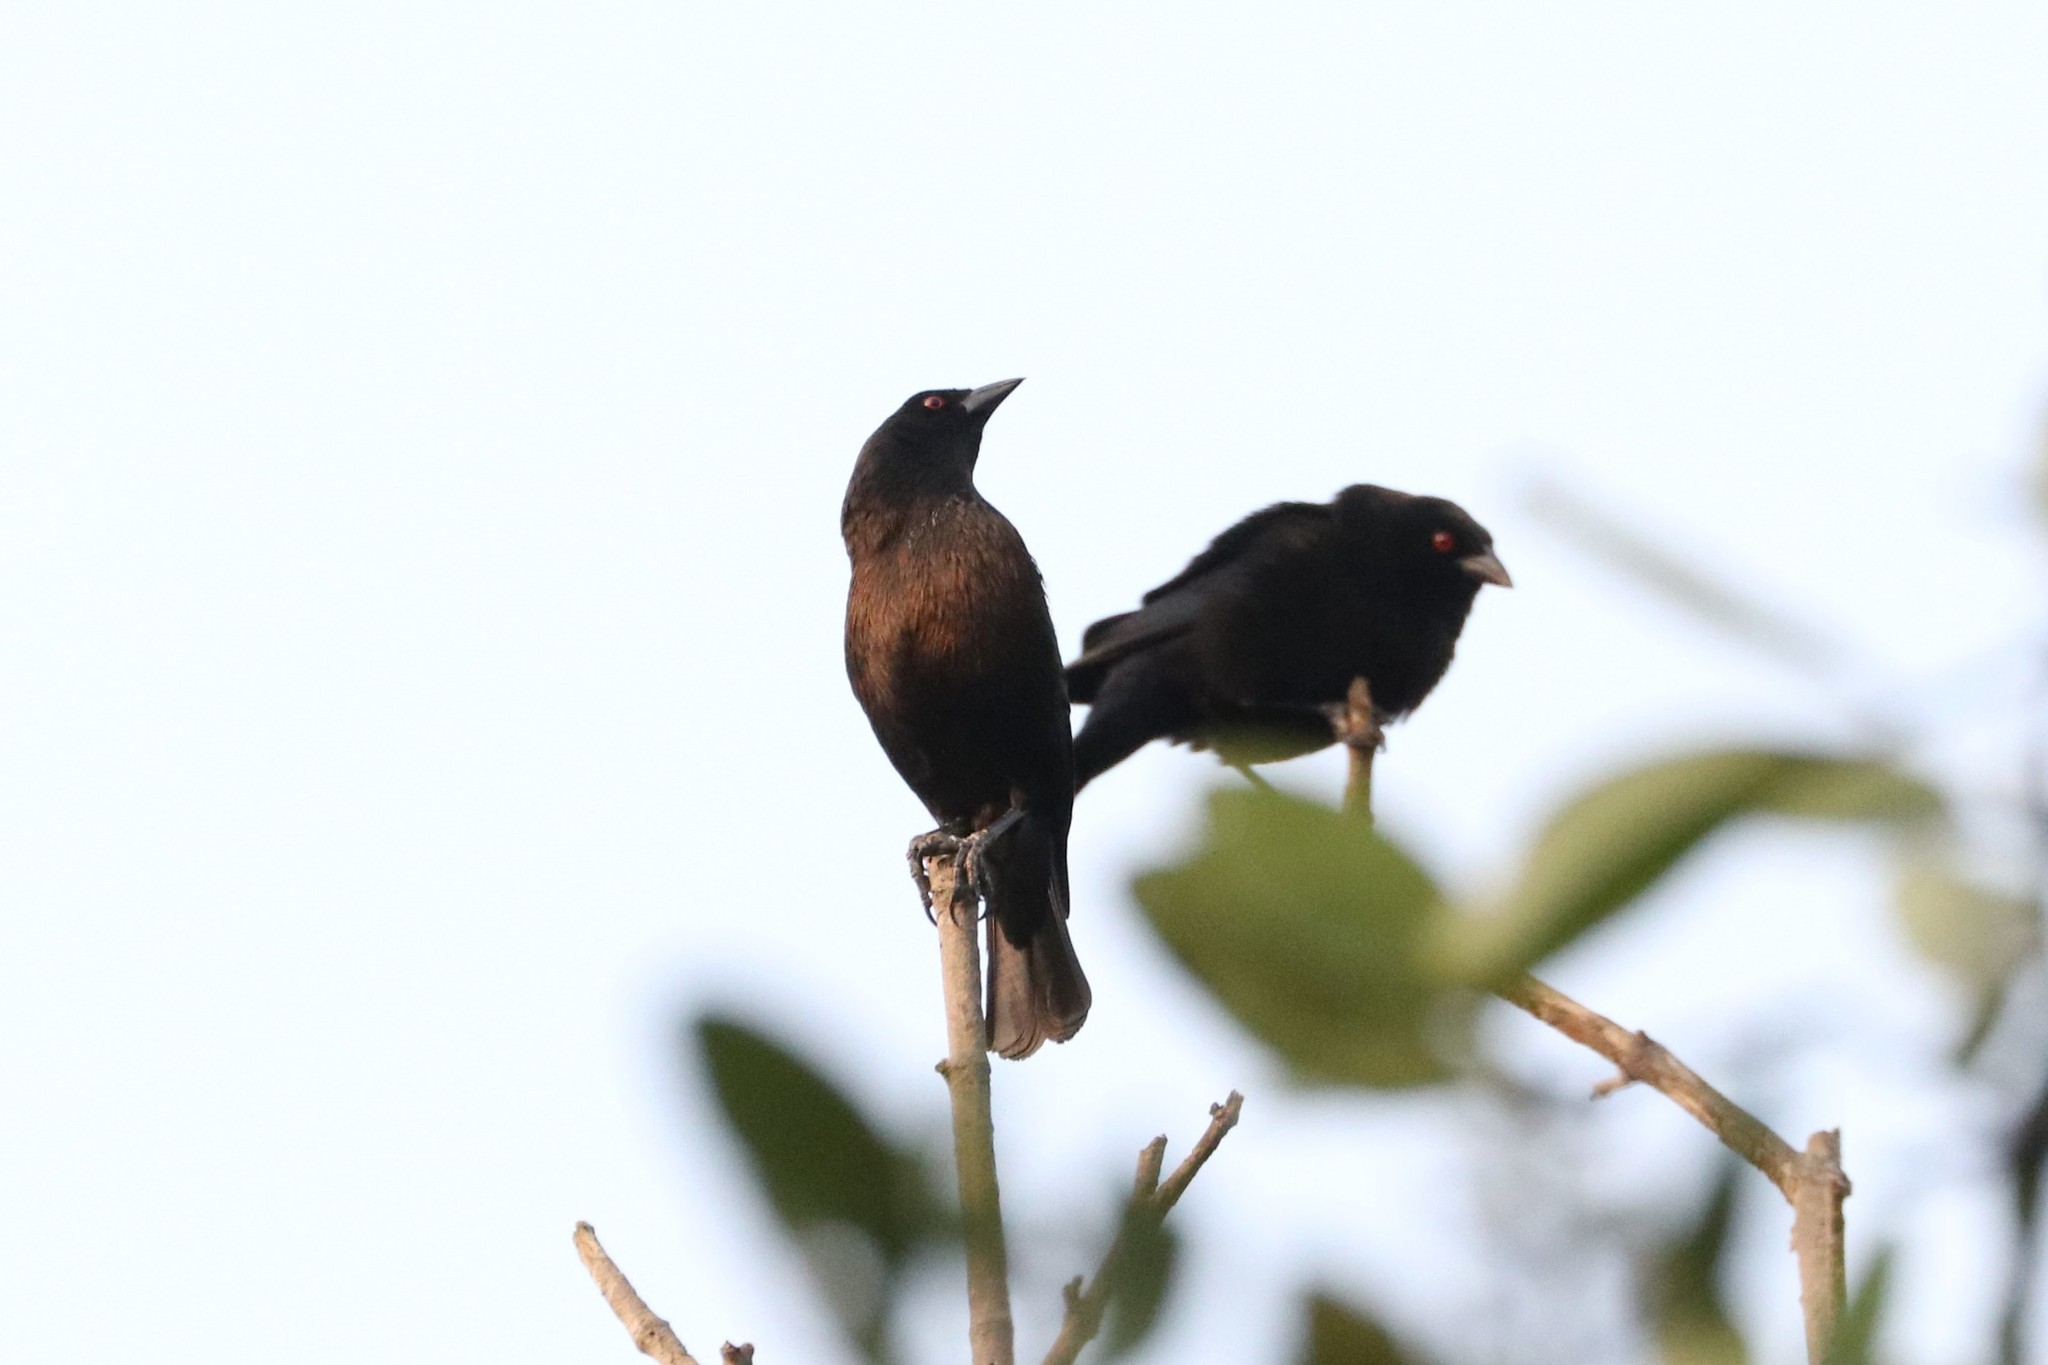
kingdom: Animalia
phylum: Chordata
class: Aves
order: Passeriformes
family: Icteridae
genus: Molothrus
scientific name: Molothrus aeneus
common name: Bronzed cowbird
